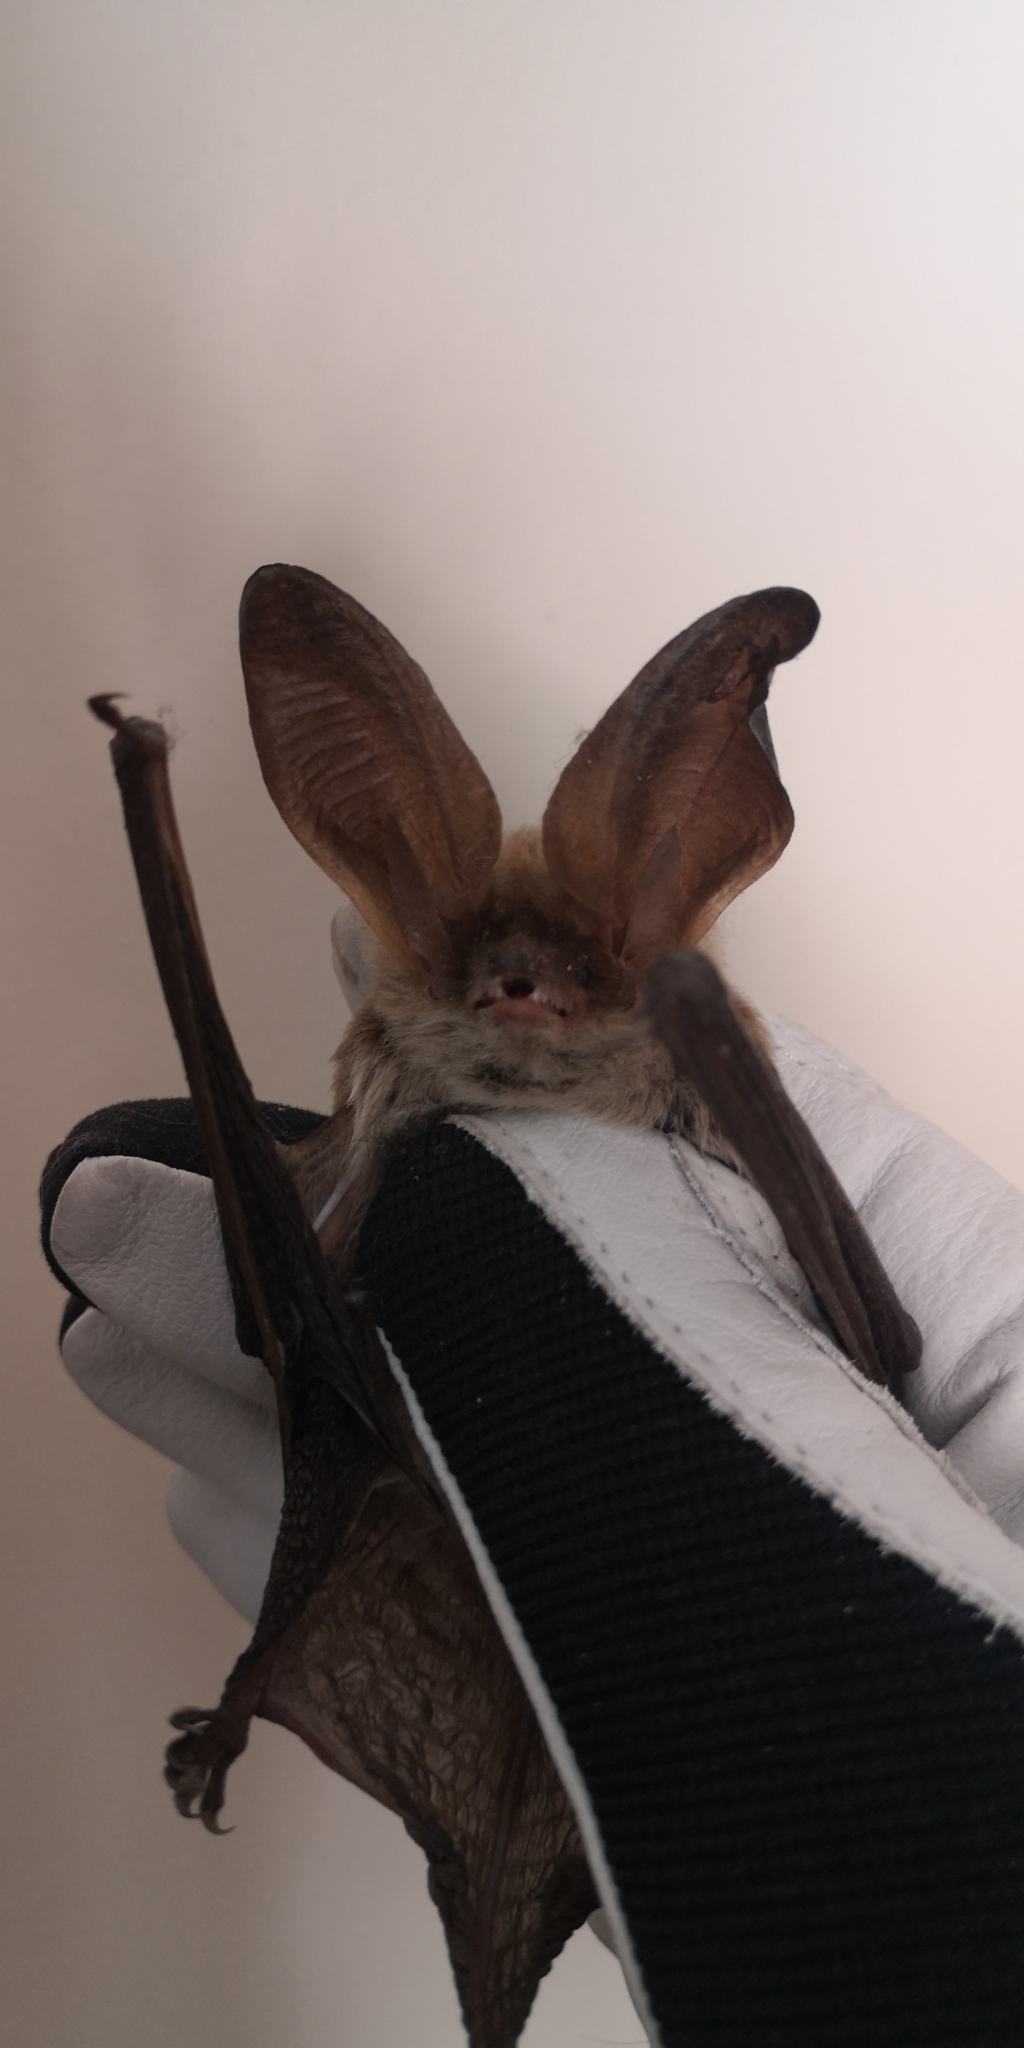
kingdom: Animalia
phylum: Chordata
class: Mammalia
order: Chiroptera
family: Vespertilionidae
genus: Histiotus
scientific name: Histiotus macrotus
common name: Big-eared brown bat
